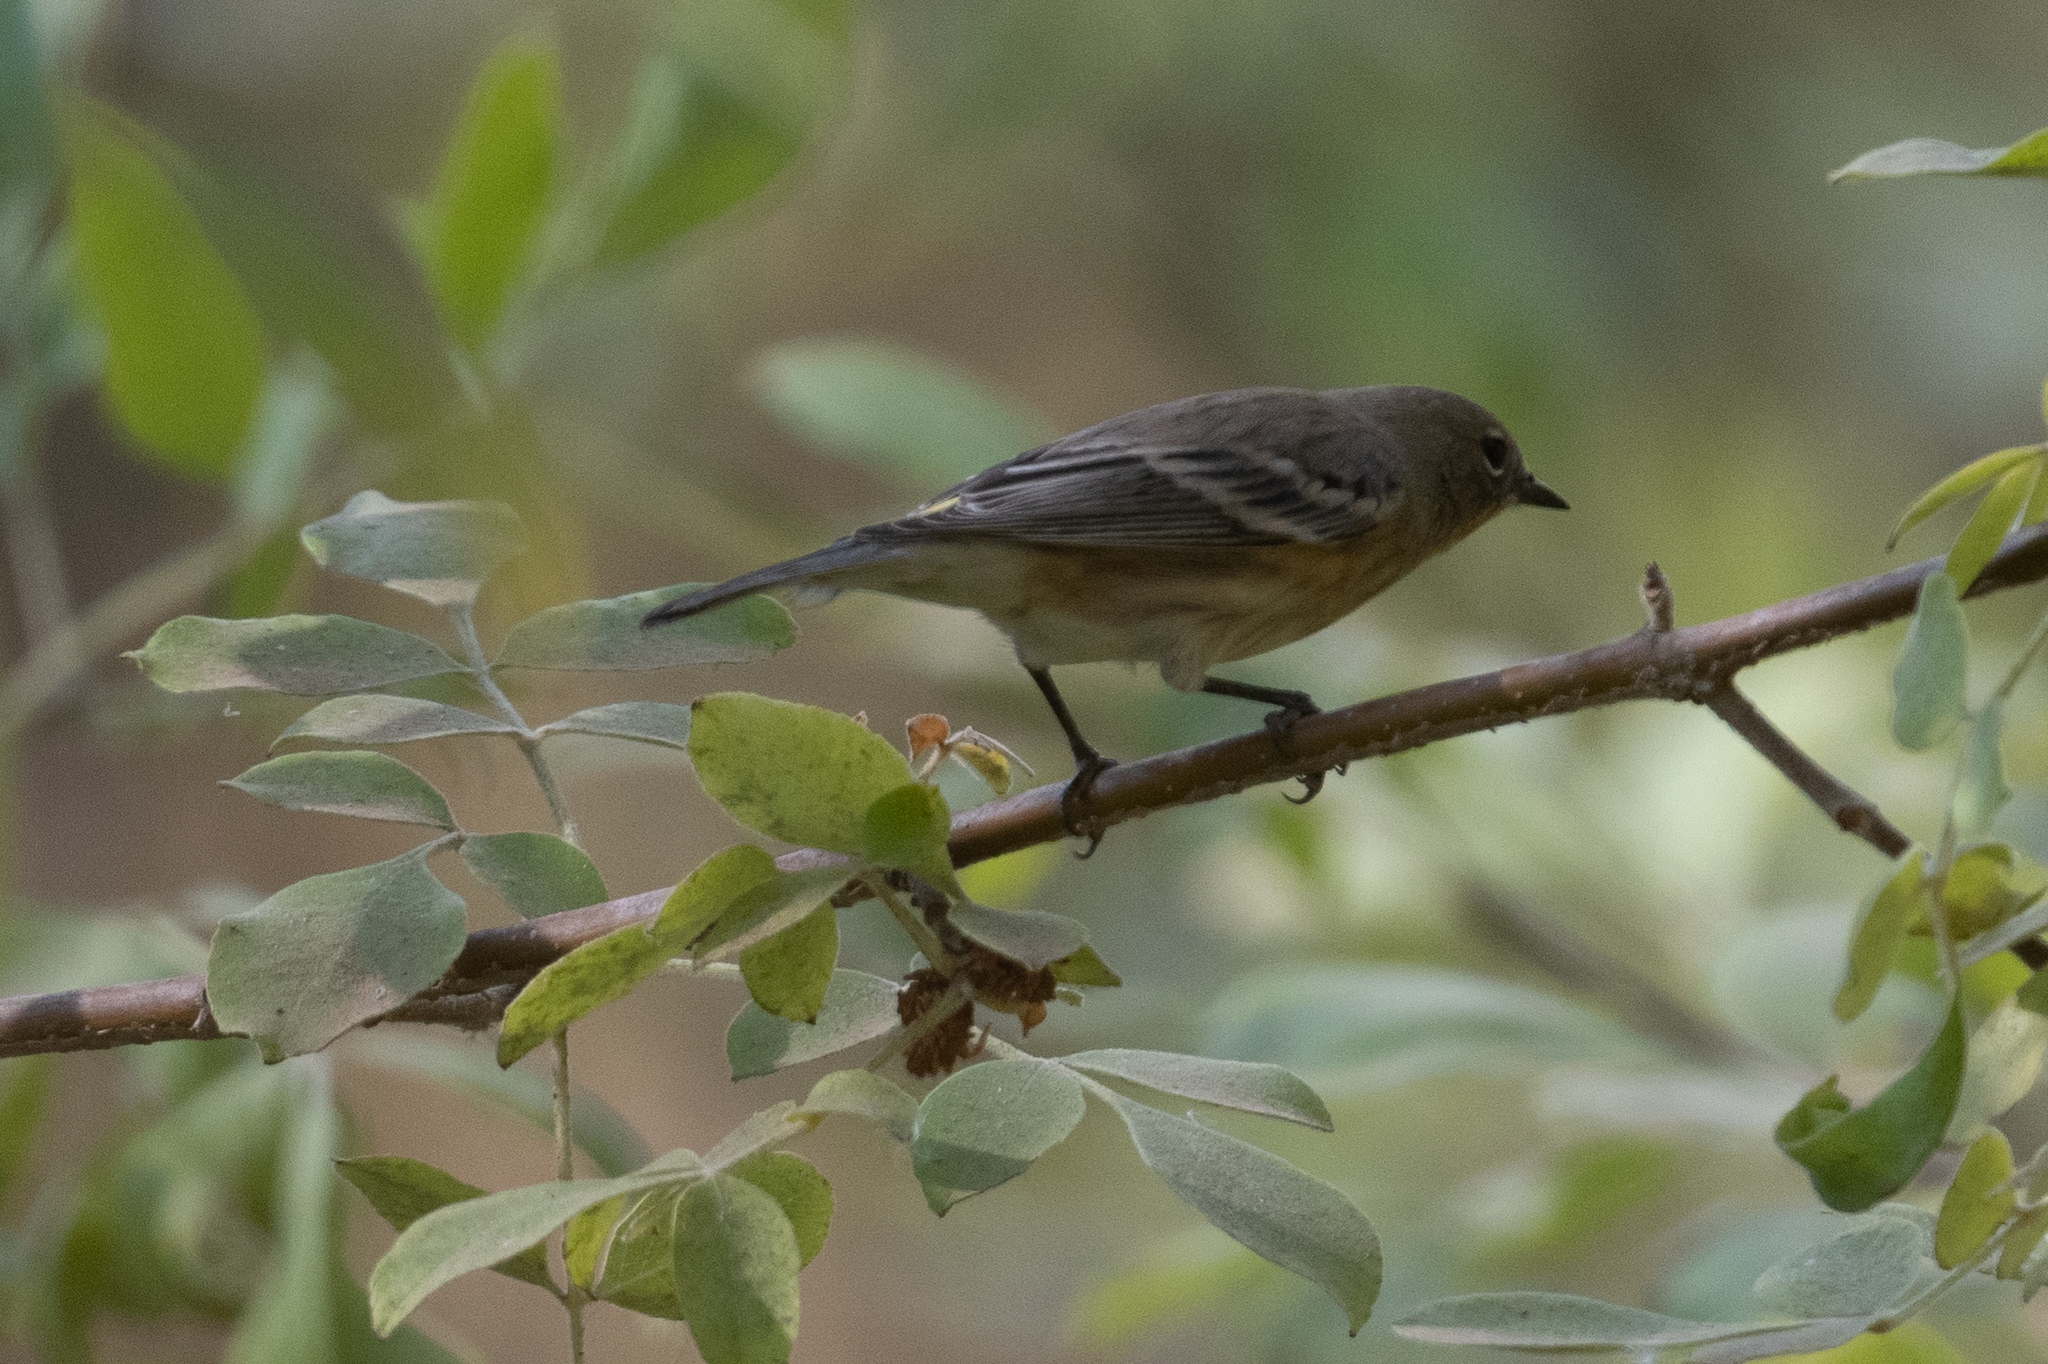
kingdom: Animalia
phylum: Chordata
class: Aves
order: Passeriformes
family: Parulidae
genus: Setophaga
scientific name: Setophaga coronata
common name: Myrtle warbler
